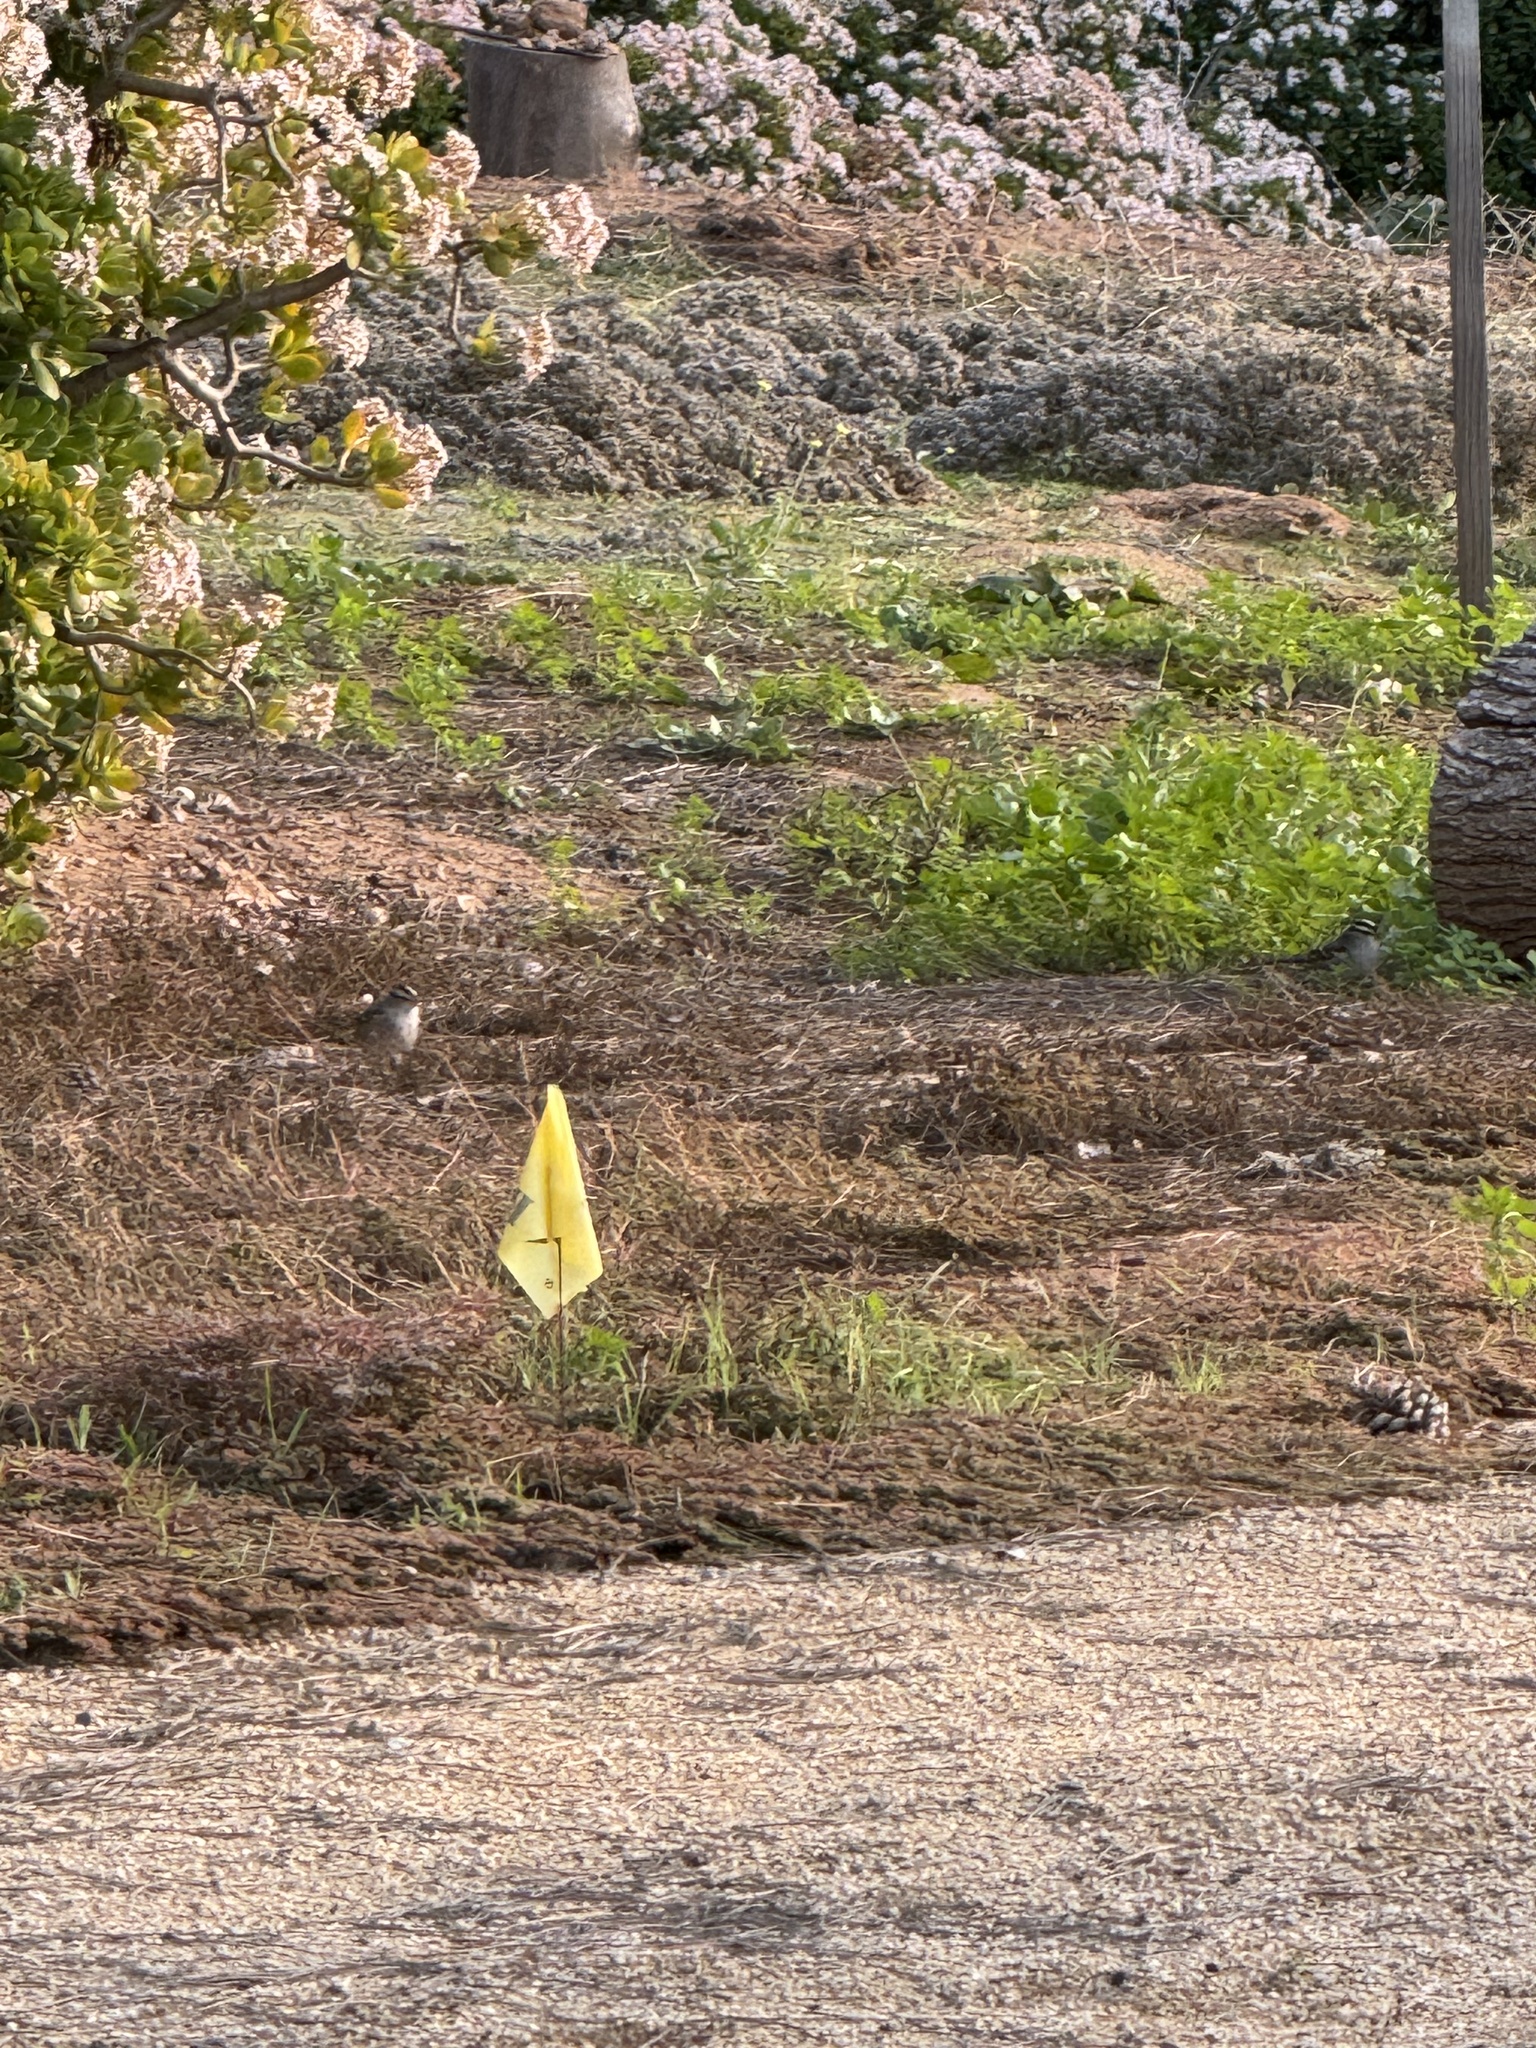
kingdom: Animalia
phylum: Chordata
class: Aves
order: Passeriformes
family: Passerellidae
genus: Zonotrichia
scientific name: Zonotrichia leucophrys
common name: White-crowned sparrow
